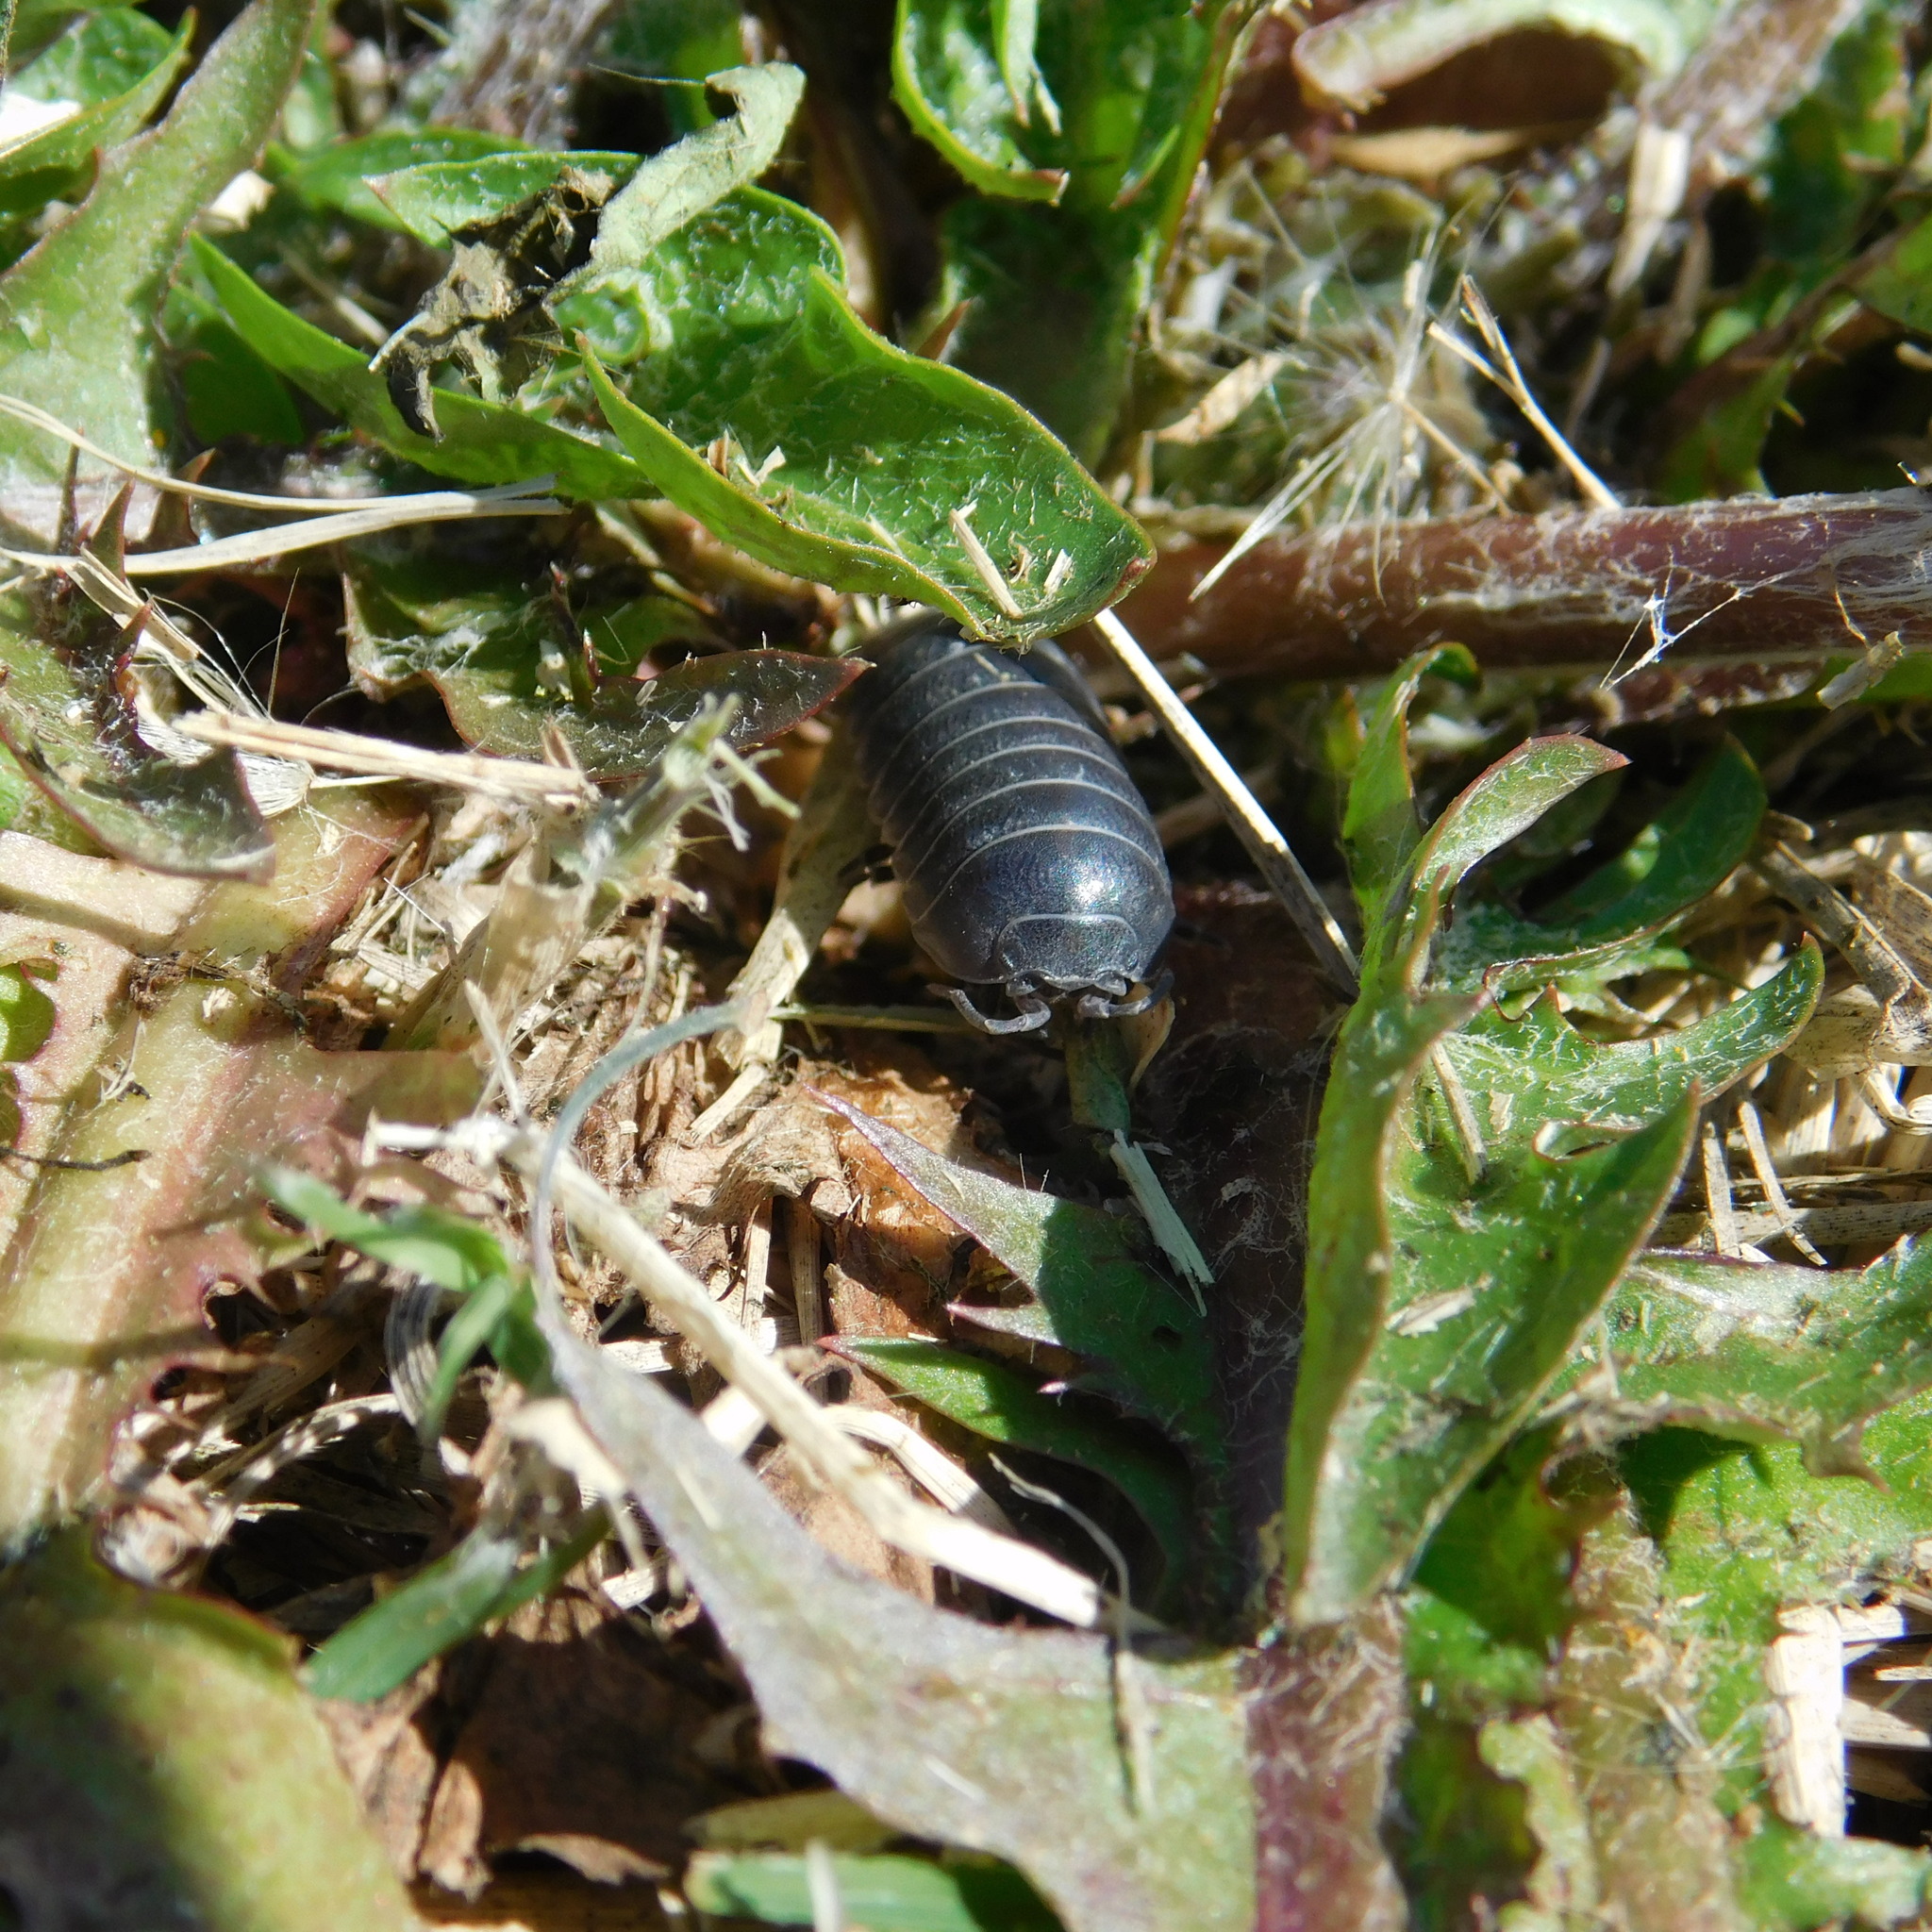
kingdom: Animalia
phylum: Arthropoda
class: Malacostraca
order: Isopoda
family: Armadillidiidae
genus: Armadillidium
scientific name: Armadillidium vulgare
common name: Common pill woodlouse
